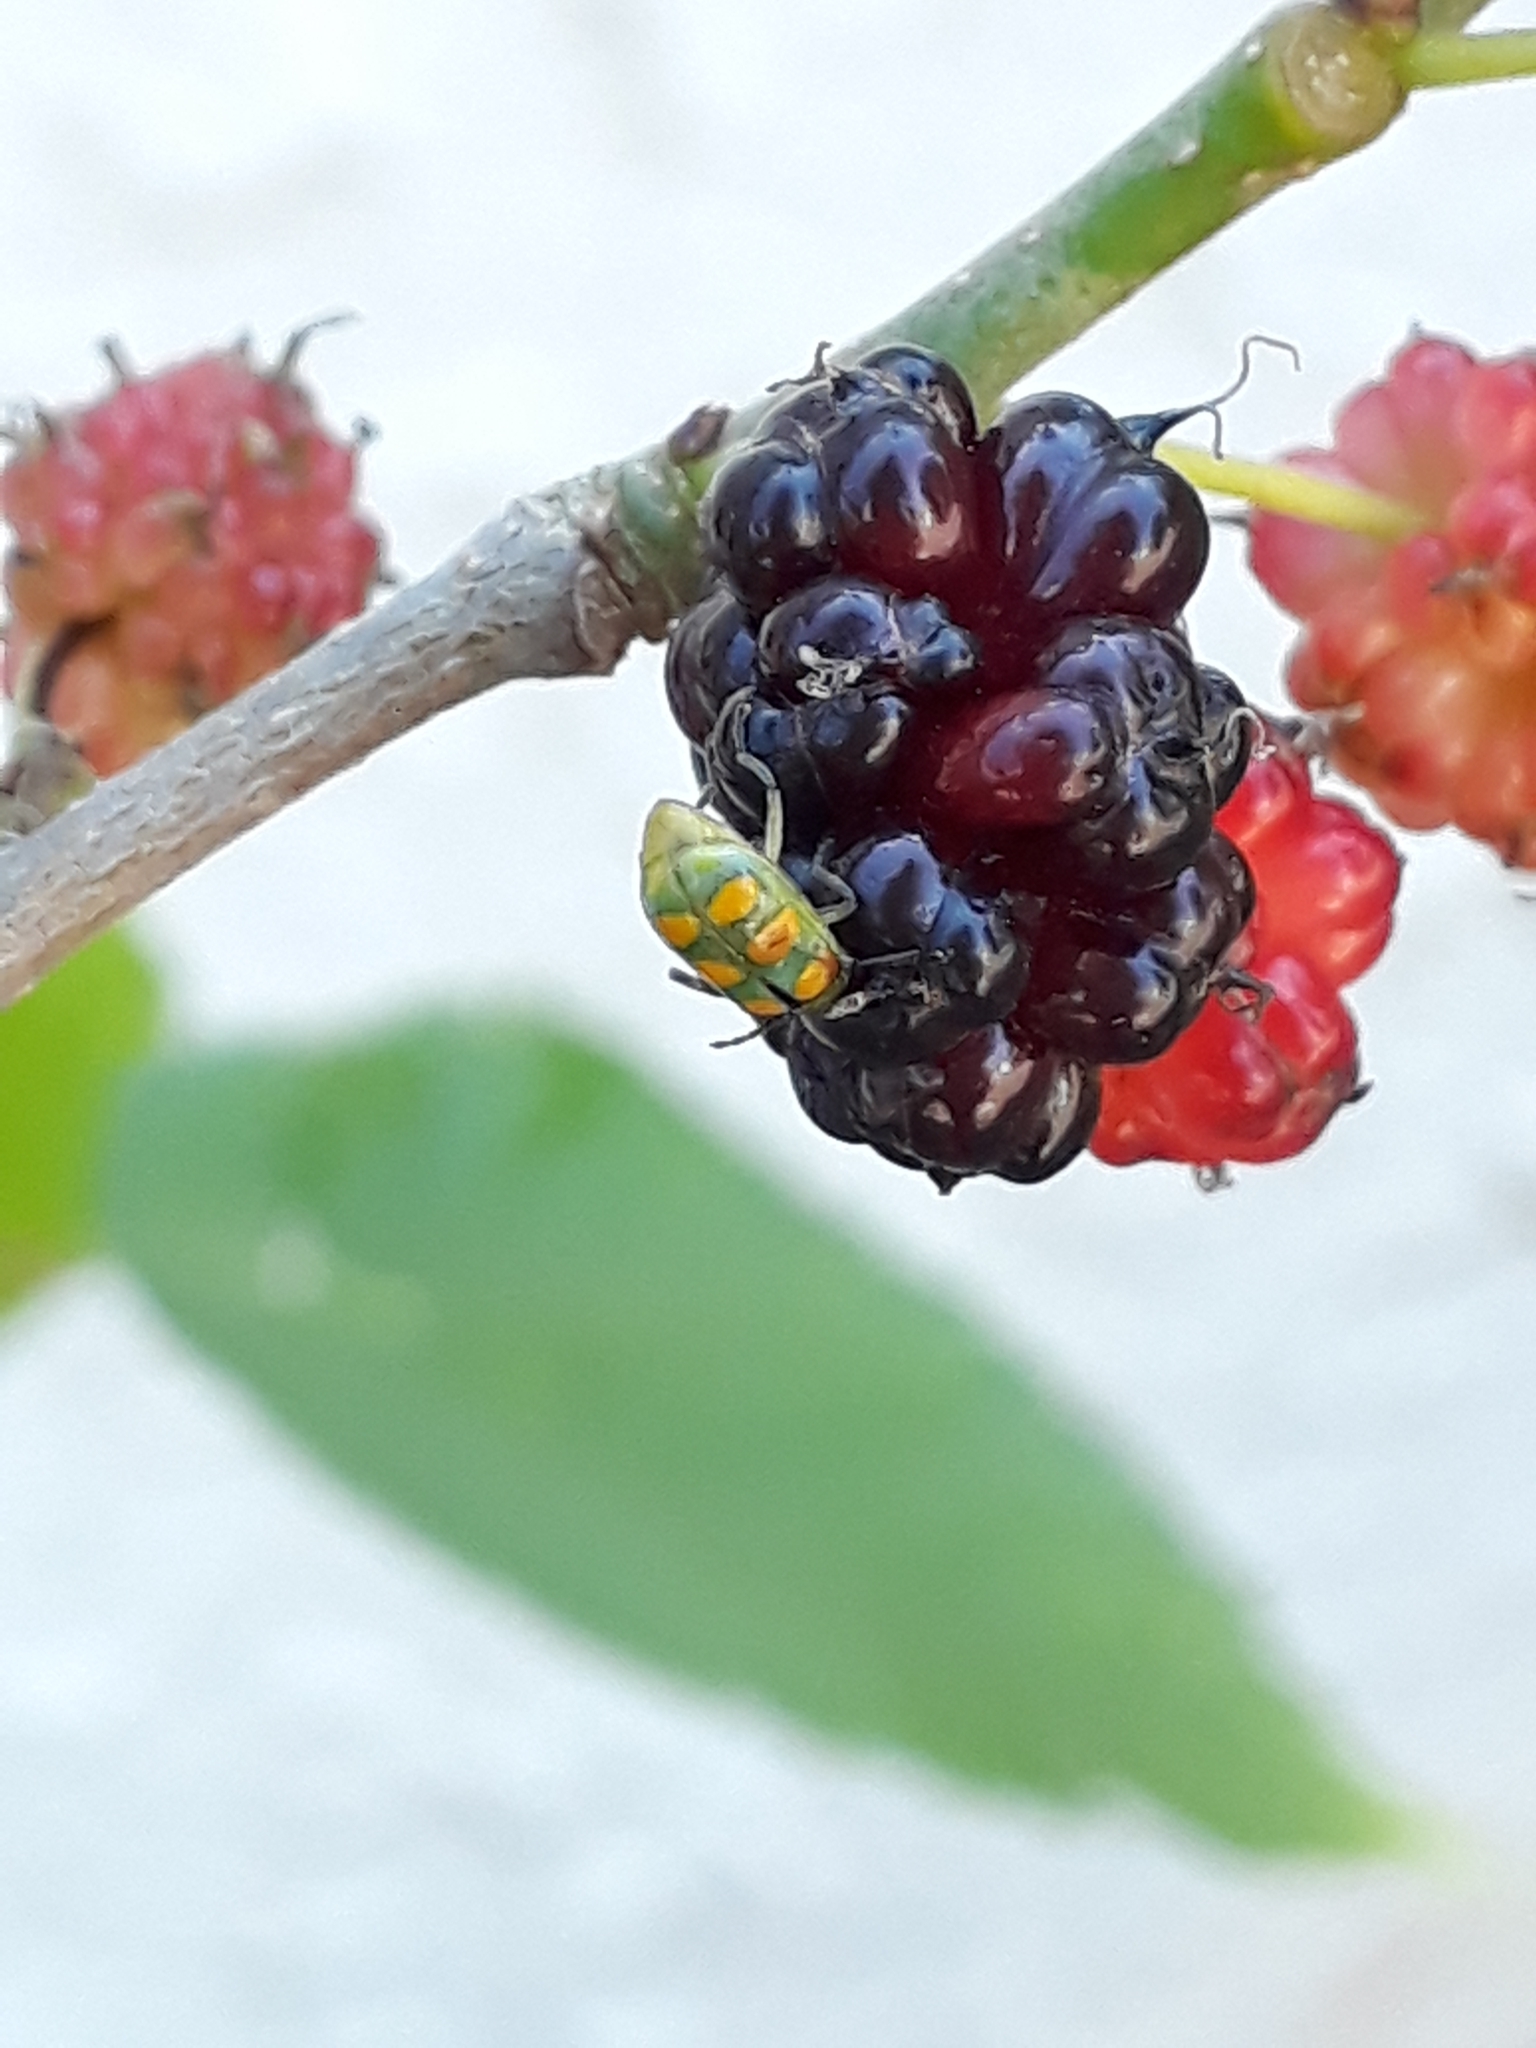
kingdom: Animalia
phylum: Arthropoda
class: Insecta
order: Coleoptera
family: Chrysomelidae
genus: Diabrotica
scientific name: Diabrotica speciosa
